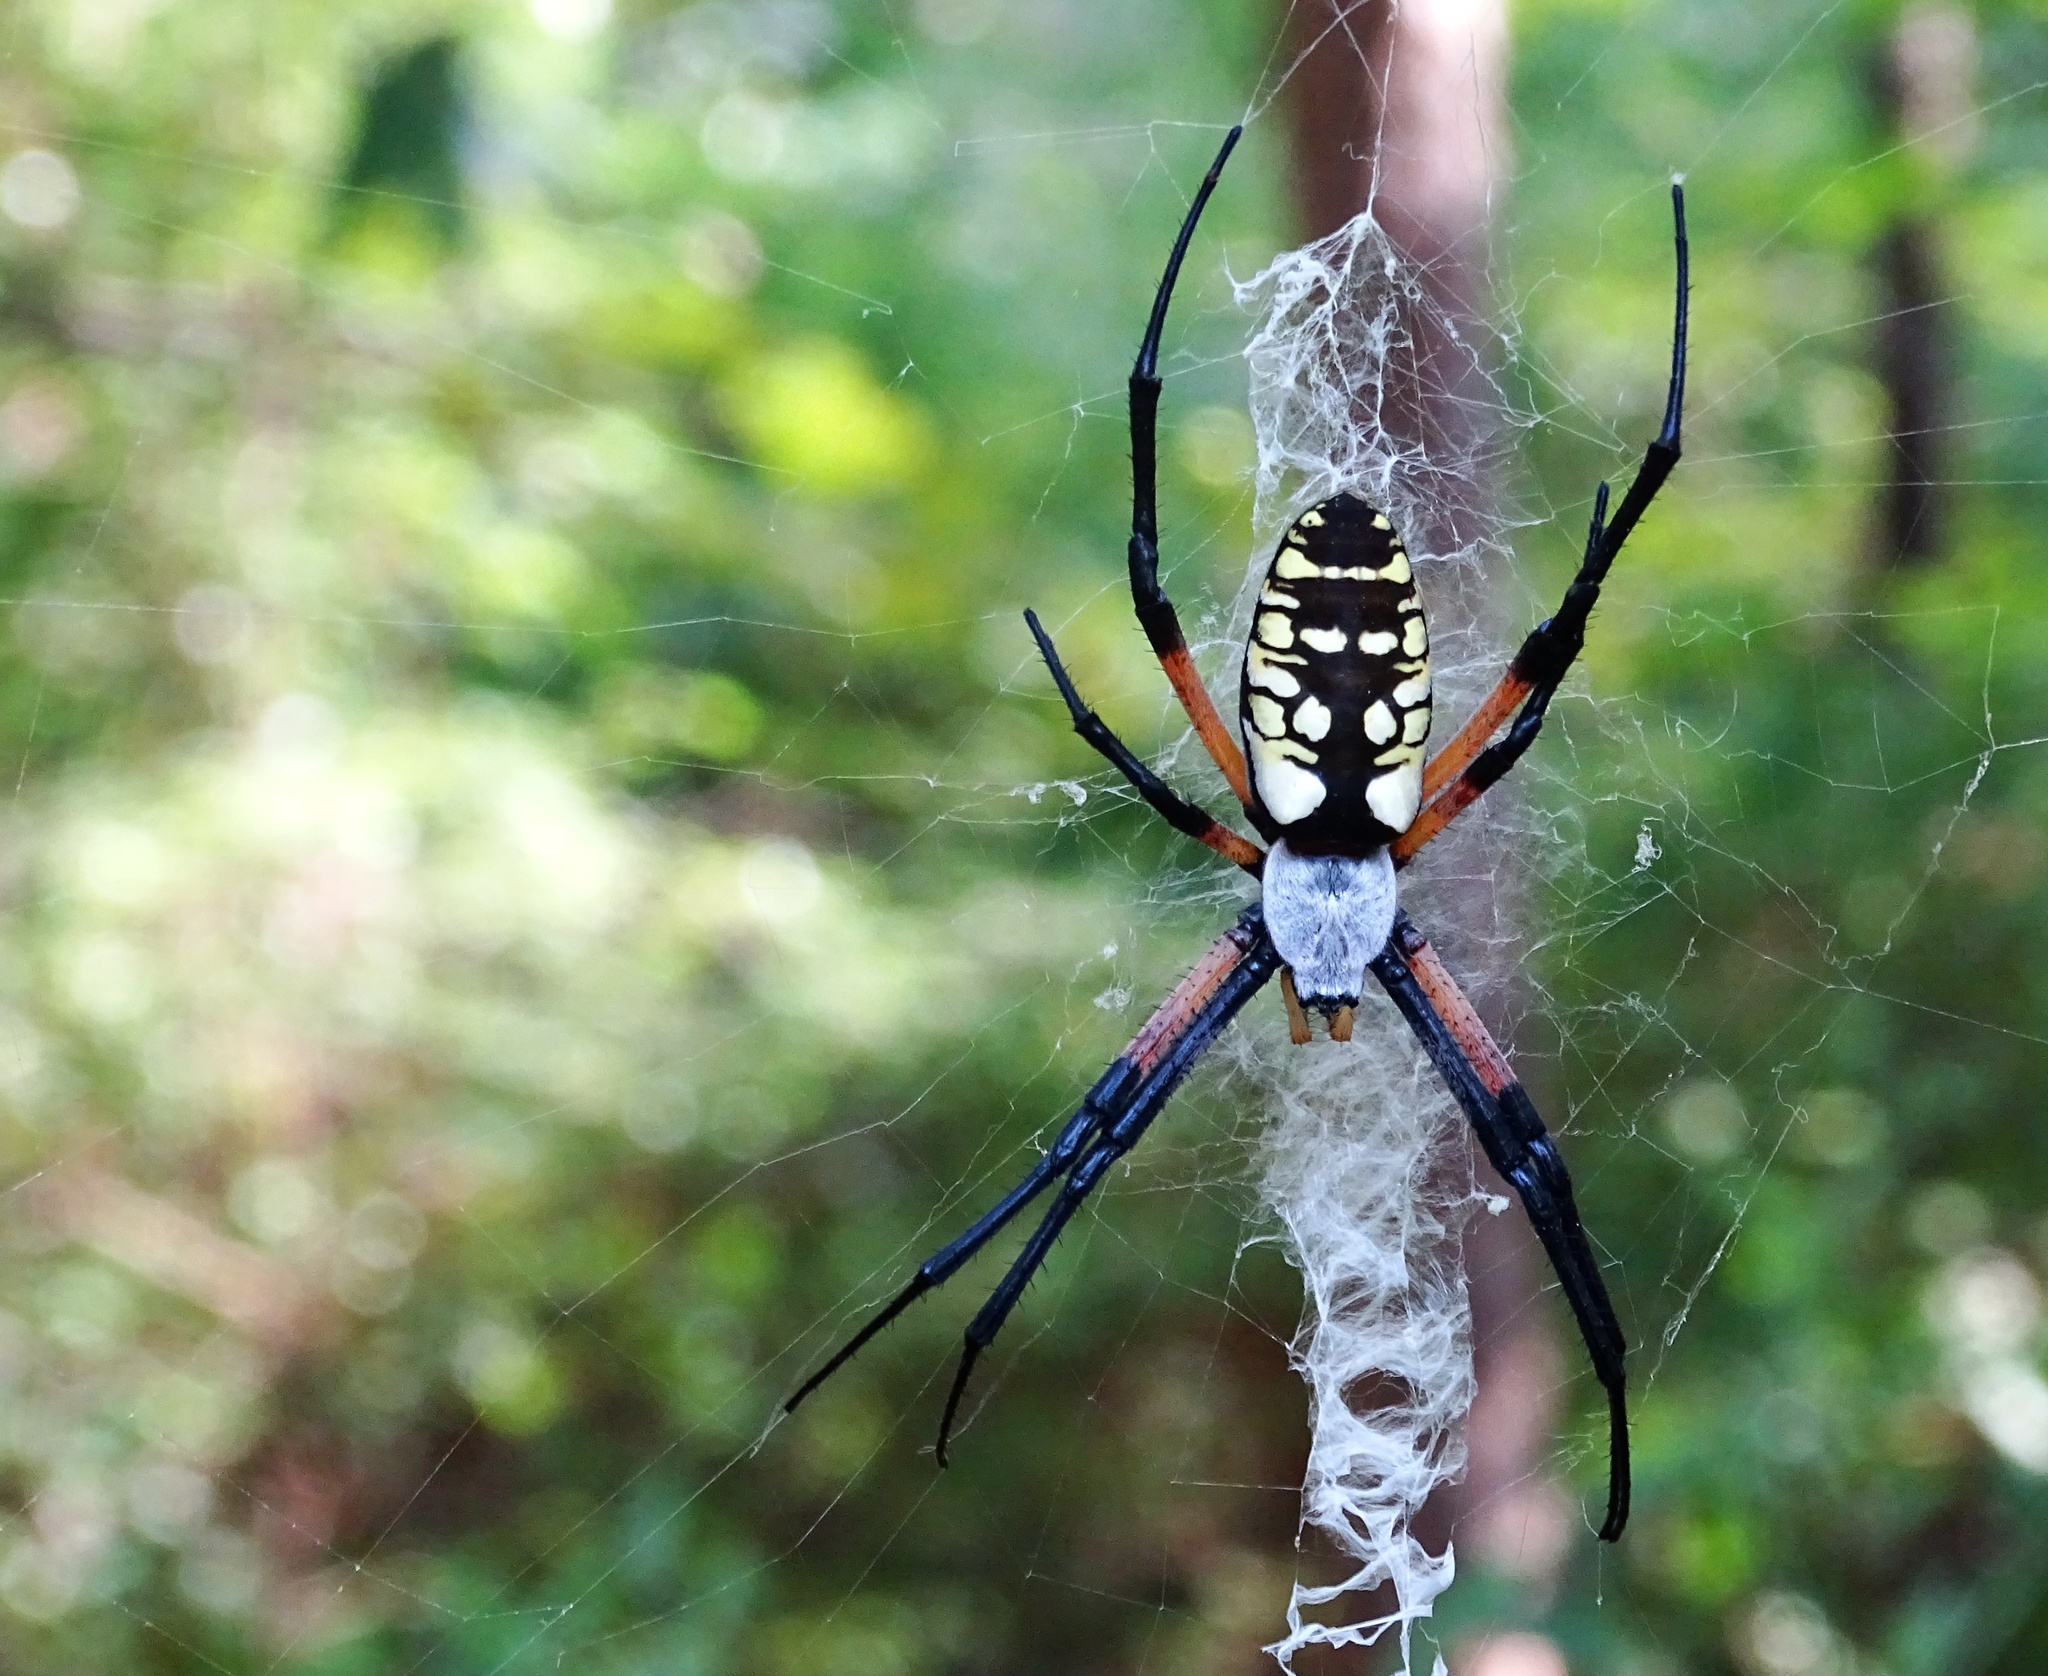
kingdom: Animalia
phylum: Arthropoda
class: Arachnida
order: Araneae
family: Araneidae
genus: Argiope
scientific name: Argiope aurantia
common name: Orb weavers
